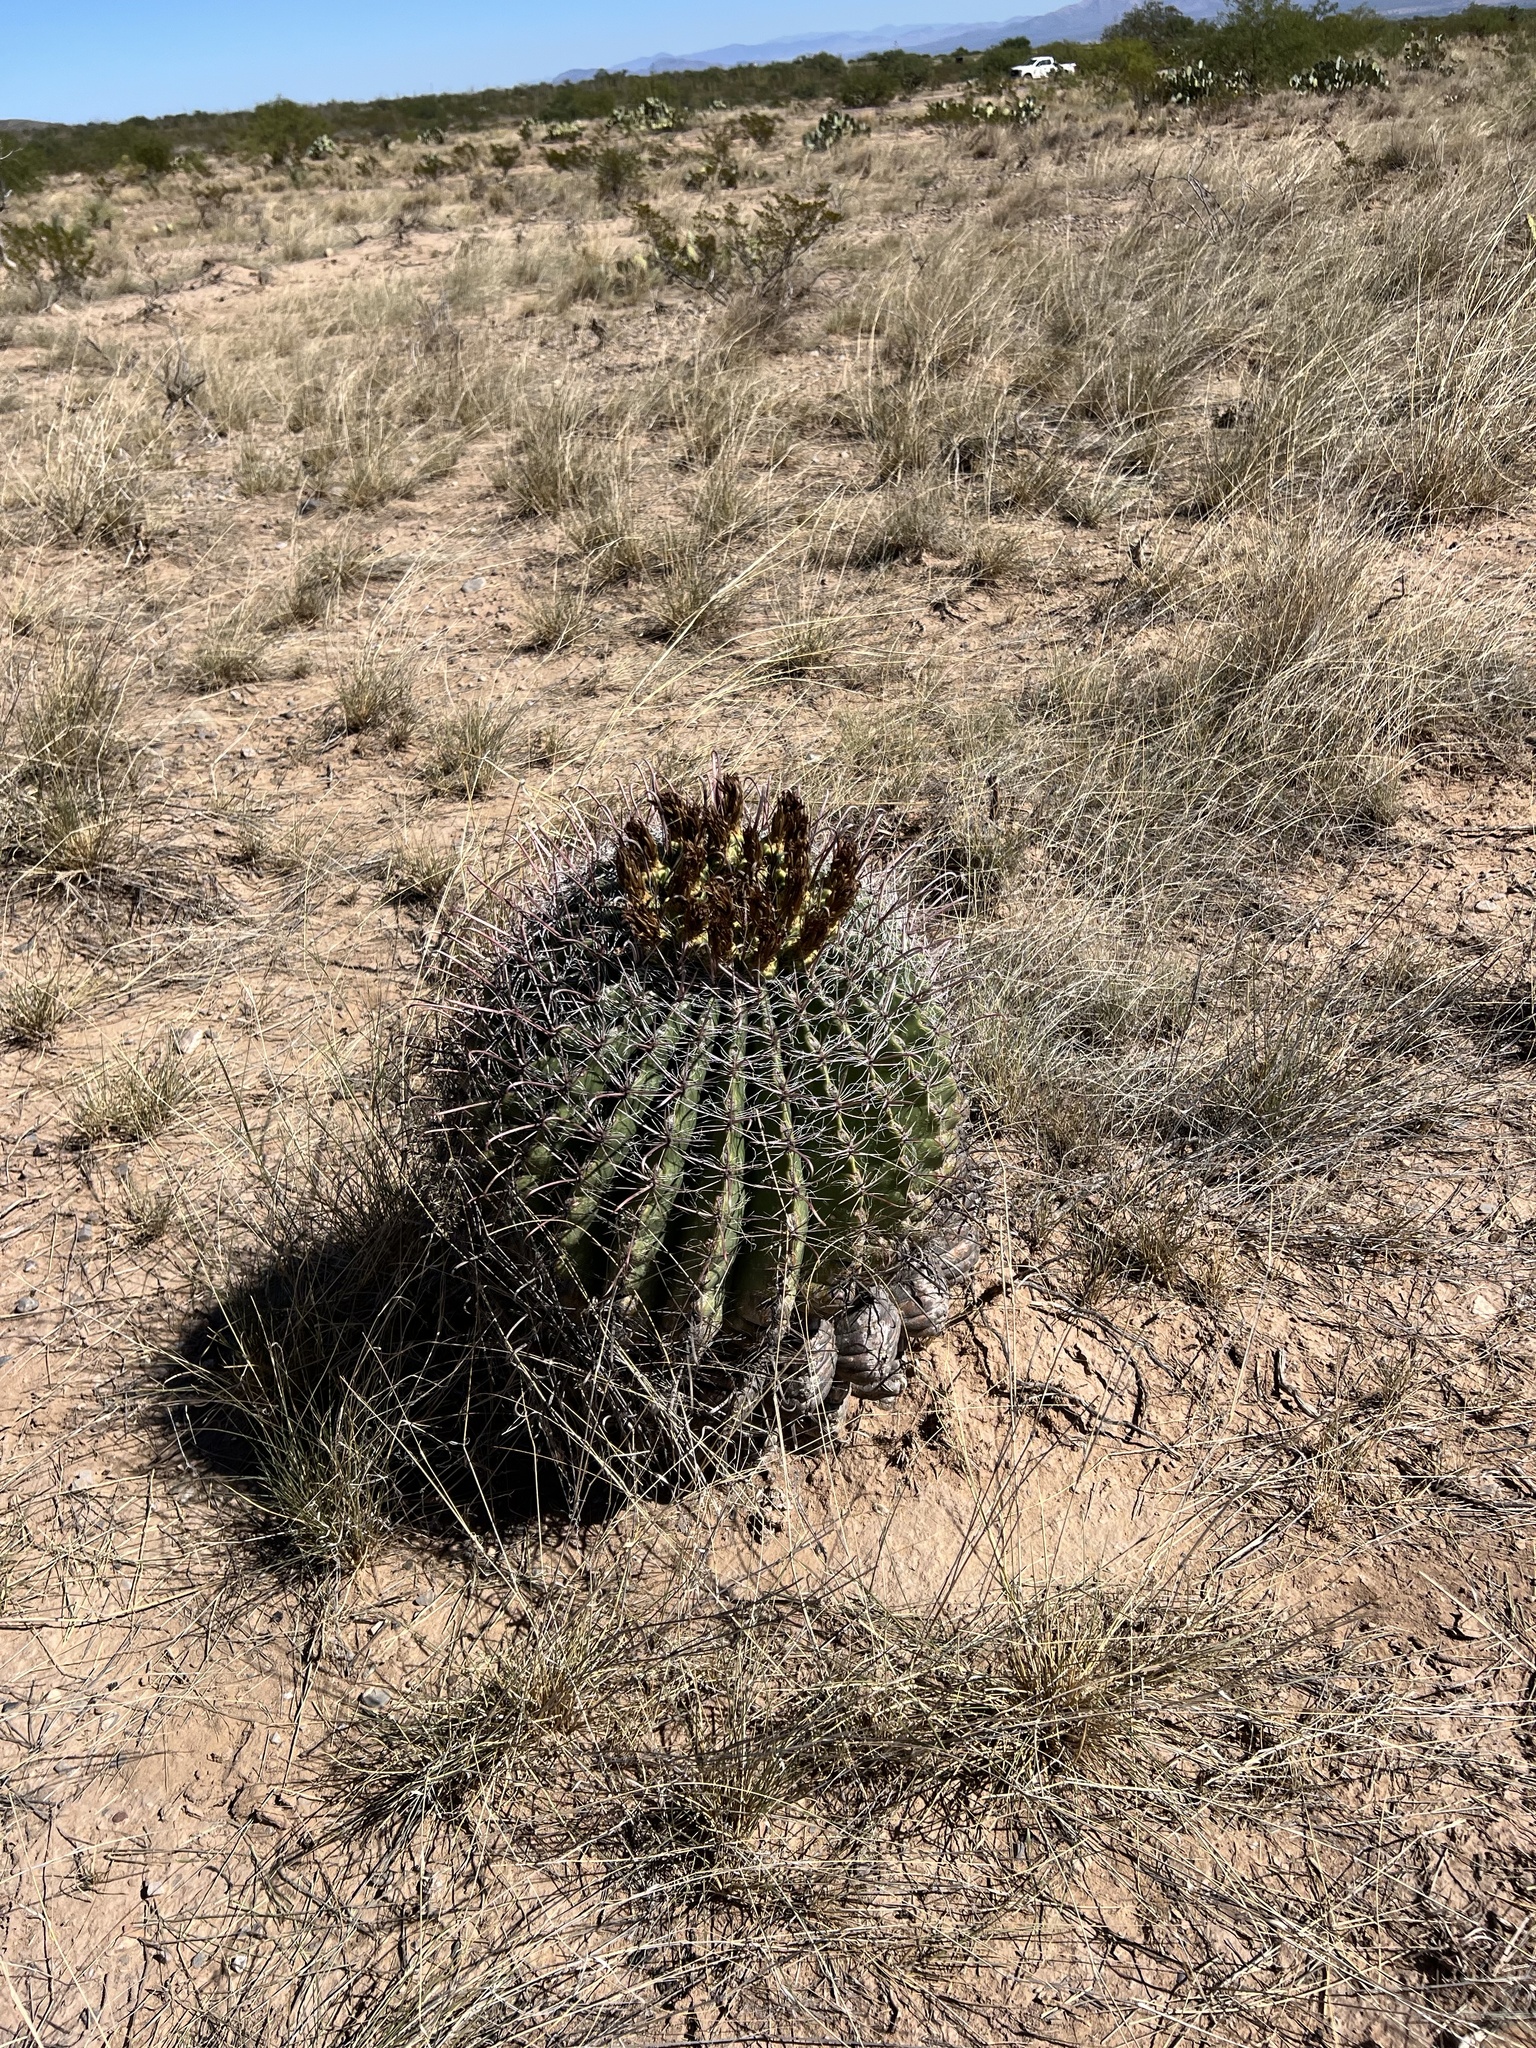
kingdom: Plantae
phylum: Tracheophyta
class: Magnoliopsida
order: Caryophyllales
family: Cactaceae
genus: Ferocactus
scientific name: Ferocactus wislizeni
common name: Candy barrel cactus
